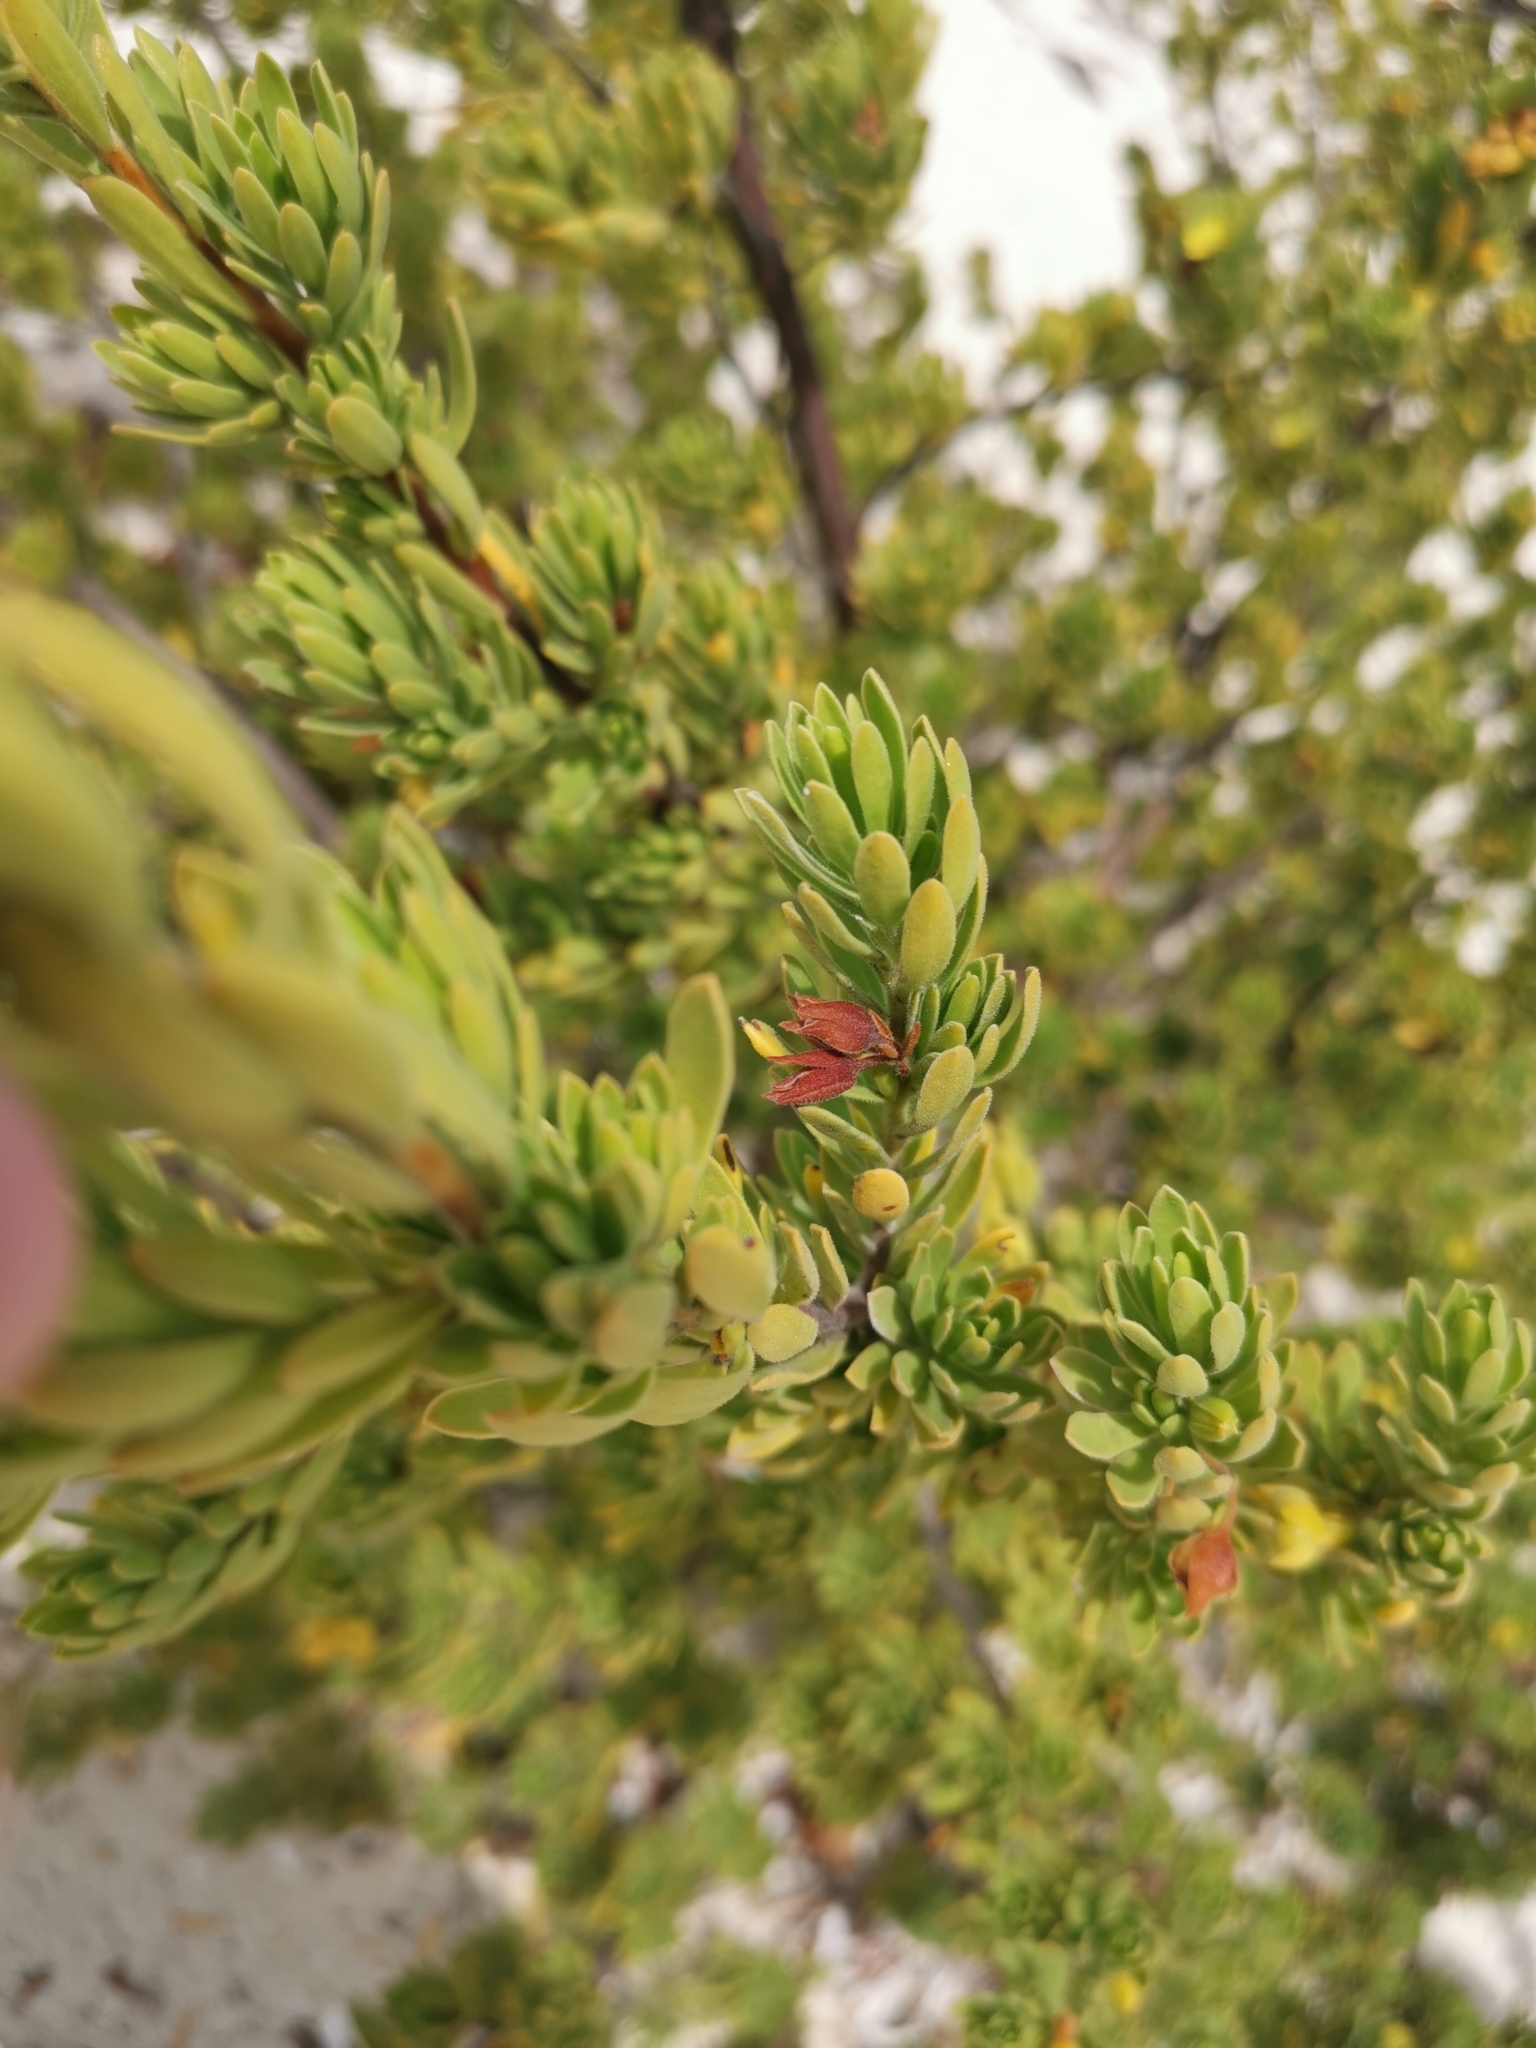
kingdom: Plantae
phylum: Tracheophyta
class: Magnoliopsida
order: Fabales
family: Surianaceae
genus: Suriana
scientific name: Suriana maritima
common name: Bay-cedar
